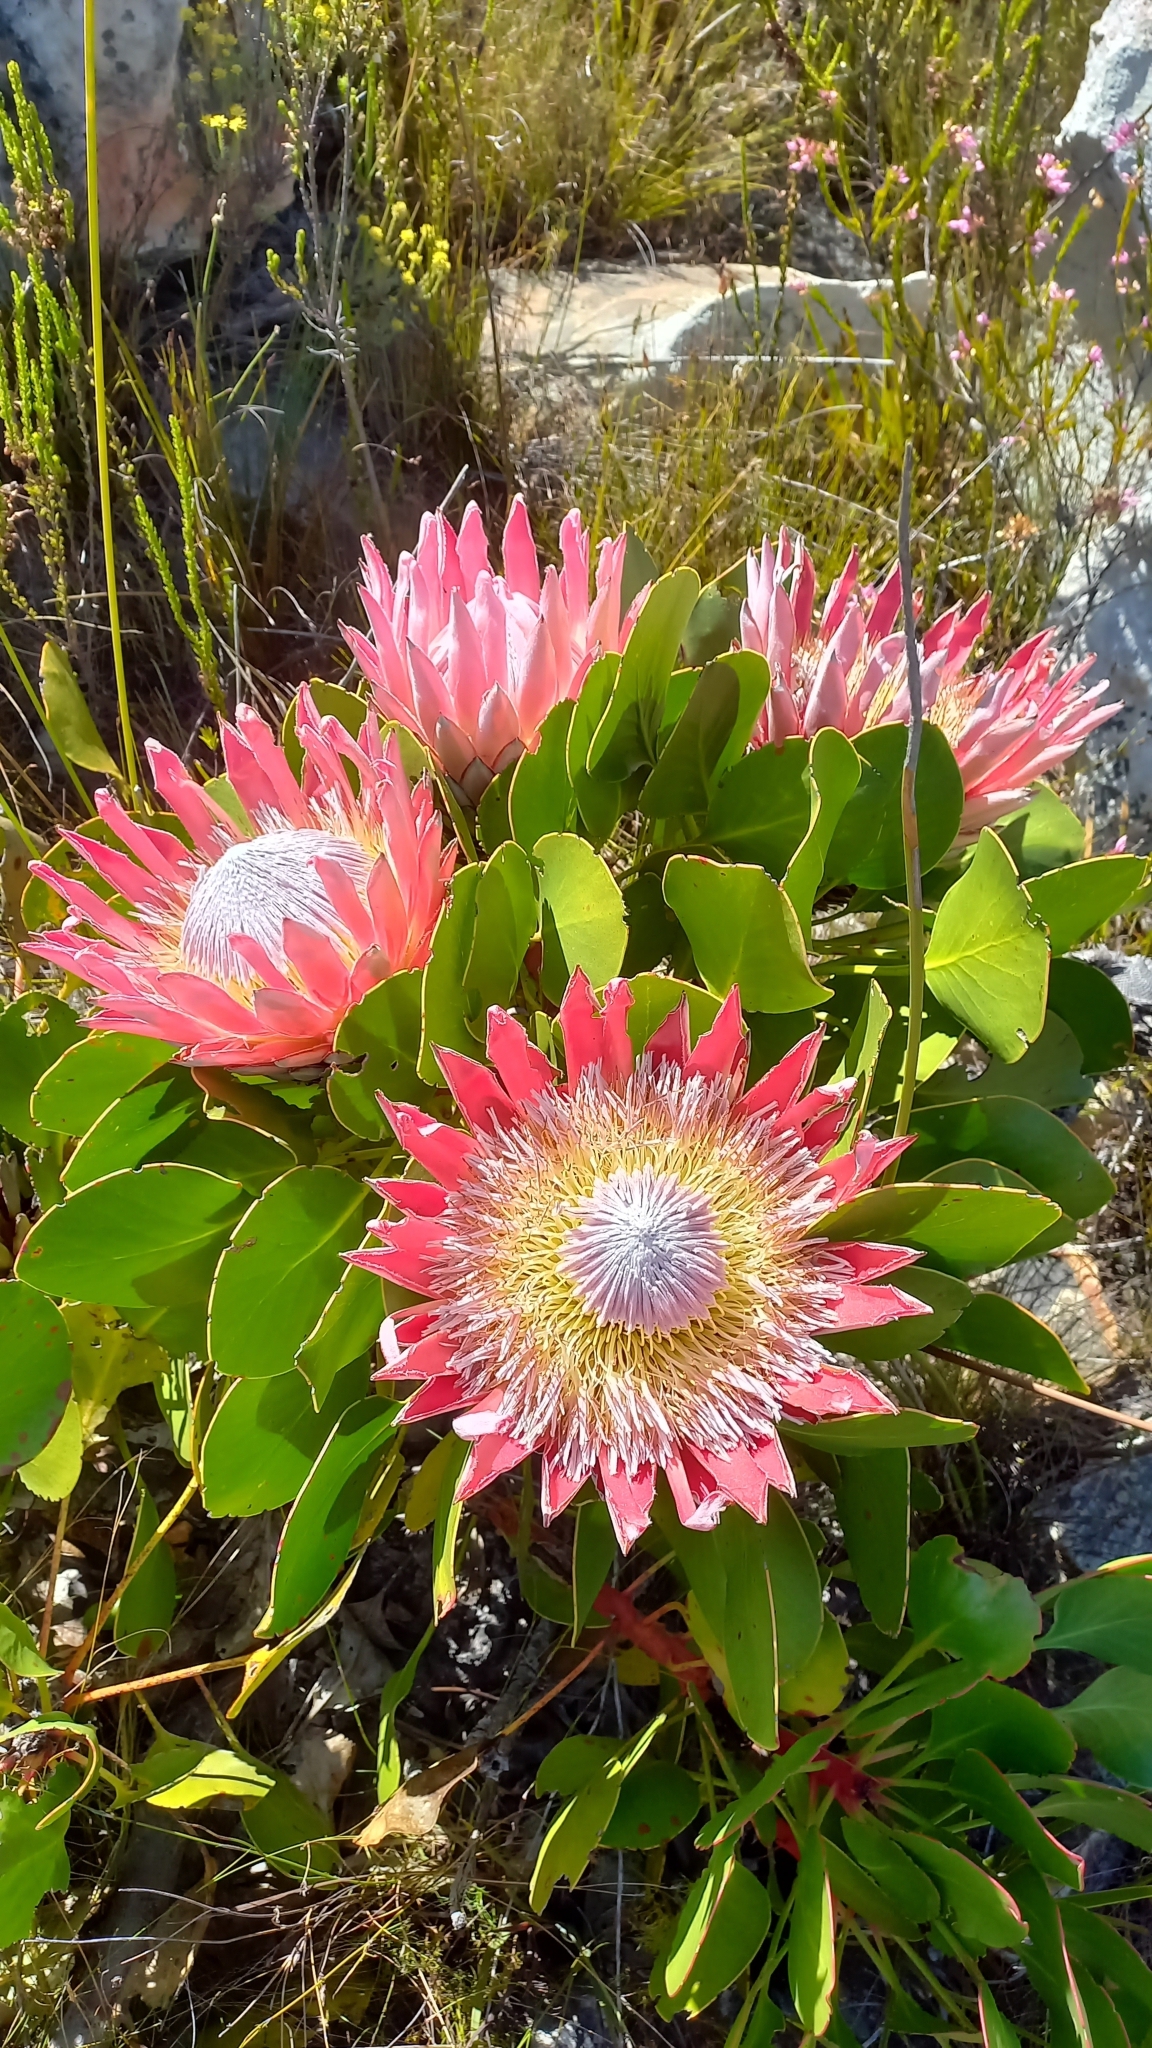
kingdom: Plantae
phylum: Tracheophyta
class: Magnoliopsida
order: Proteales
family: Proteaceae
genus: Protea
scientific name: Protea cynaroides
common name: King protea
